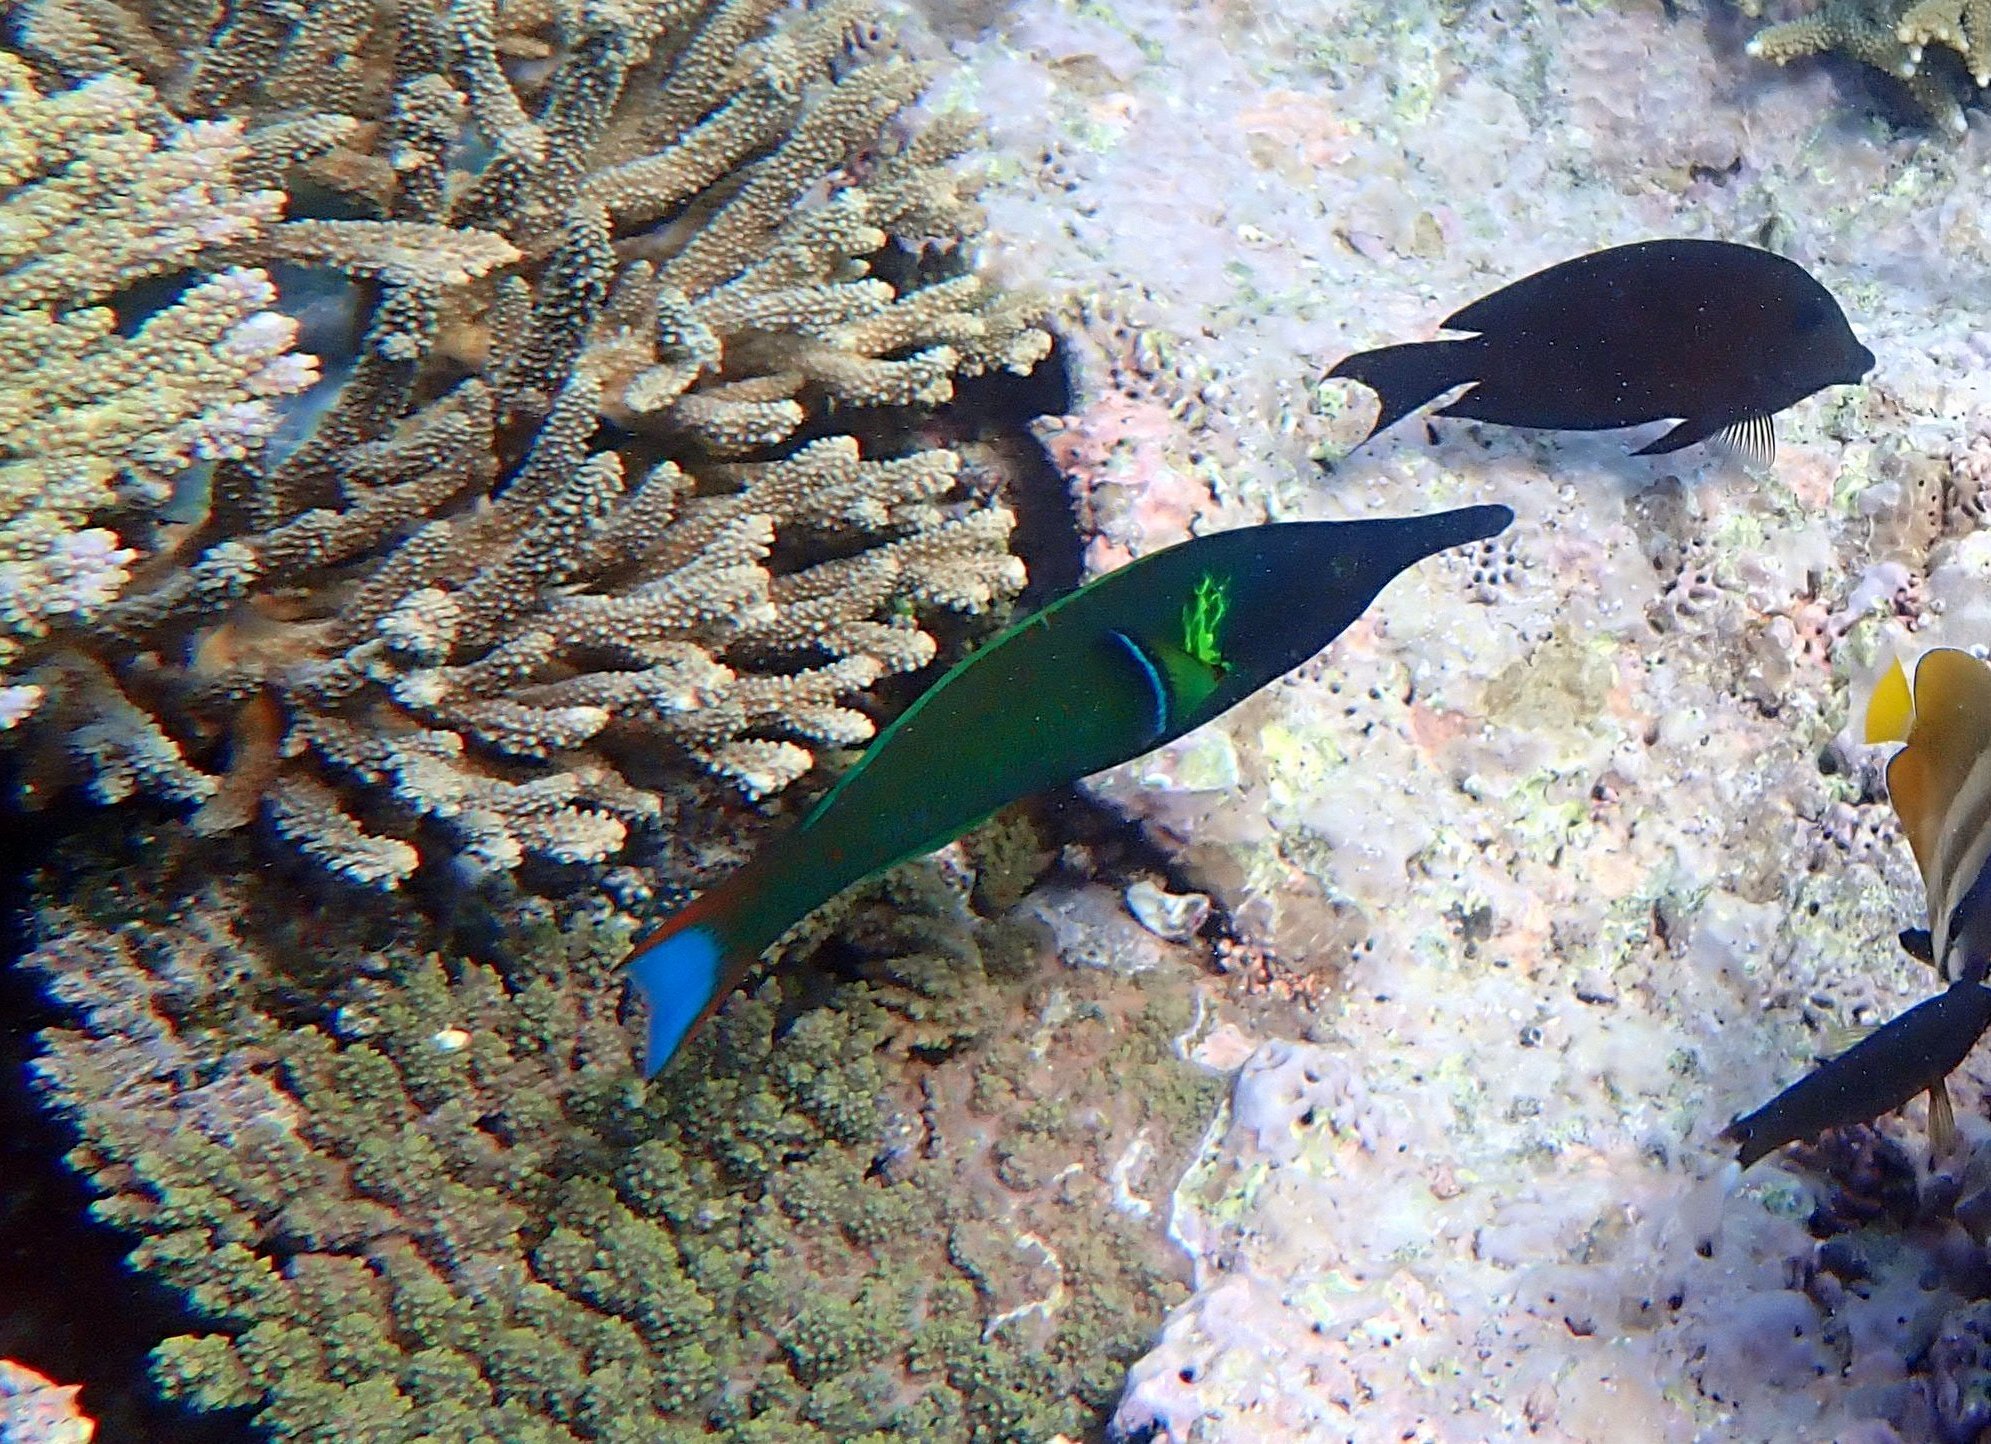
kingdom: Animalia
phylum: Chordata
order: Perciformes
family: Labridae
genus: Gomphosus
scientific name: Gomphosus varius
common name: Bird wrasse
